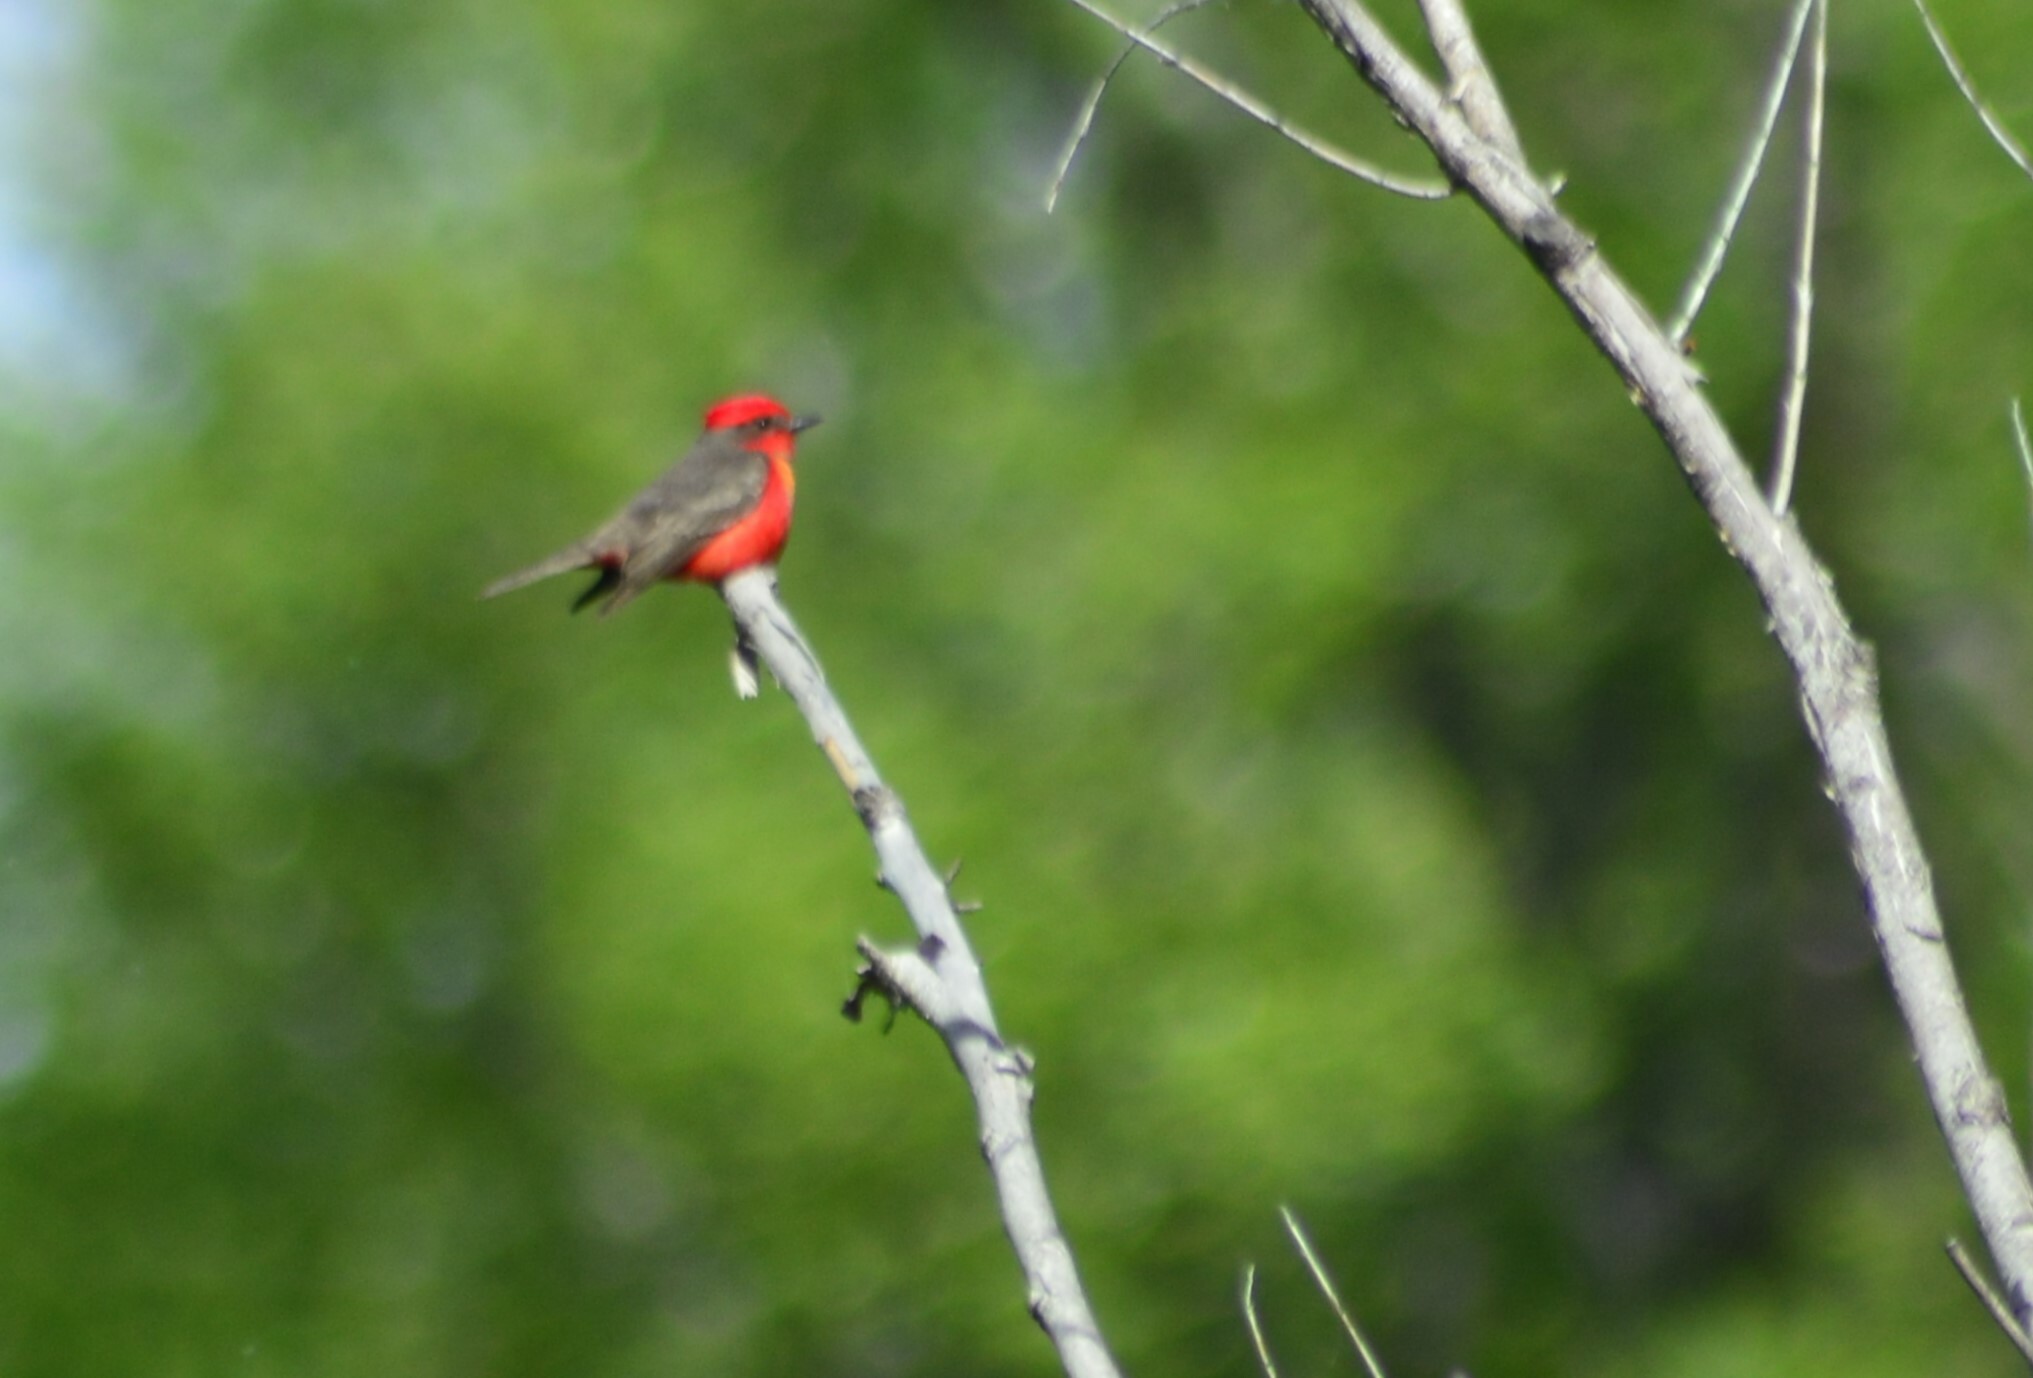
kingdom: Animalia
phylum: Chordata
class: Aves
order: Passeriformes
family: Tyrannidae
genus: Pyrocephalus
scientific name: Pyrocephalus rubinus
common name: Vermilion flycatcher
